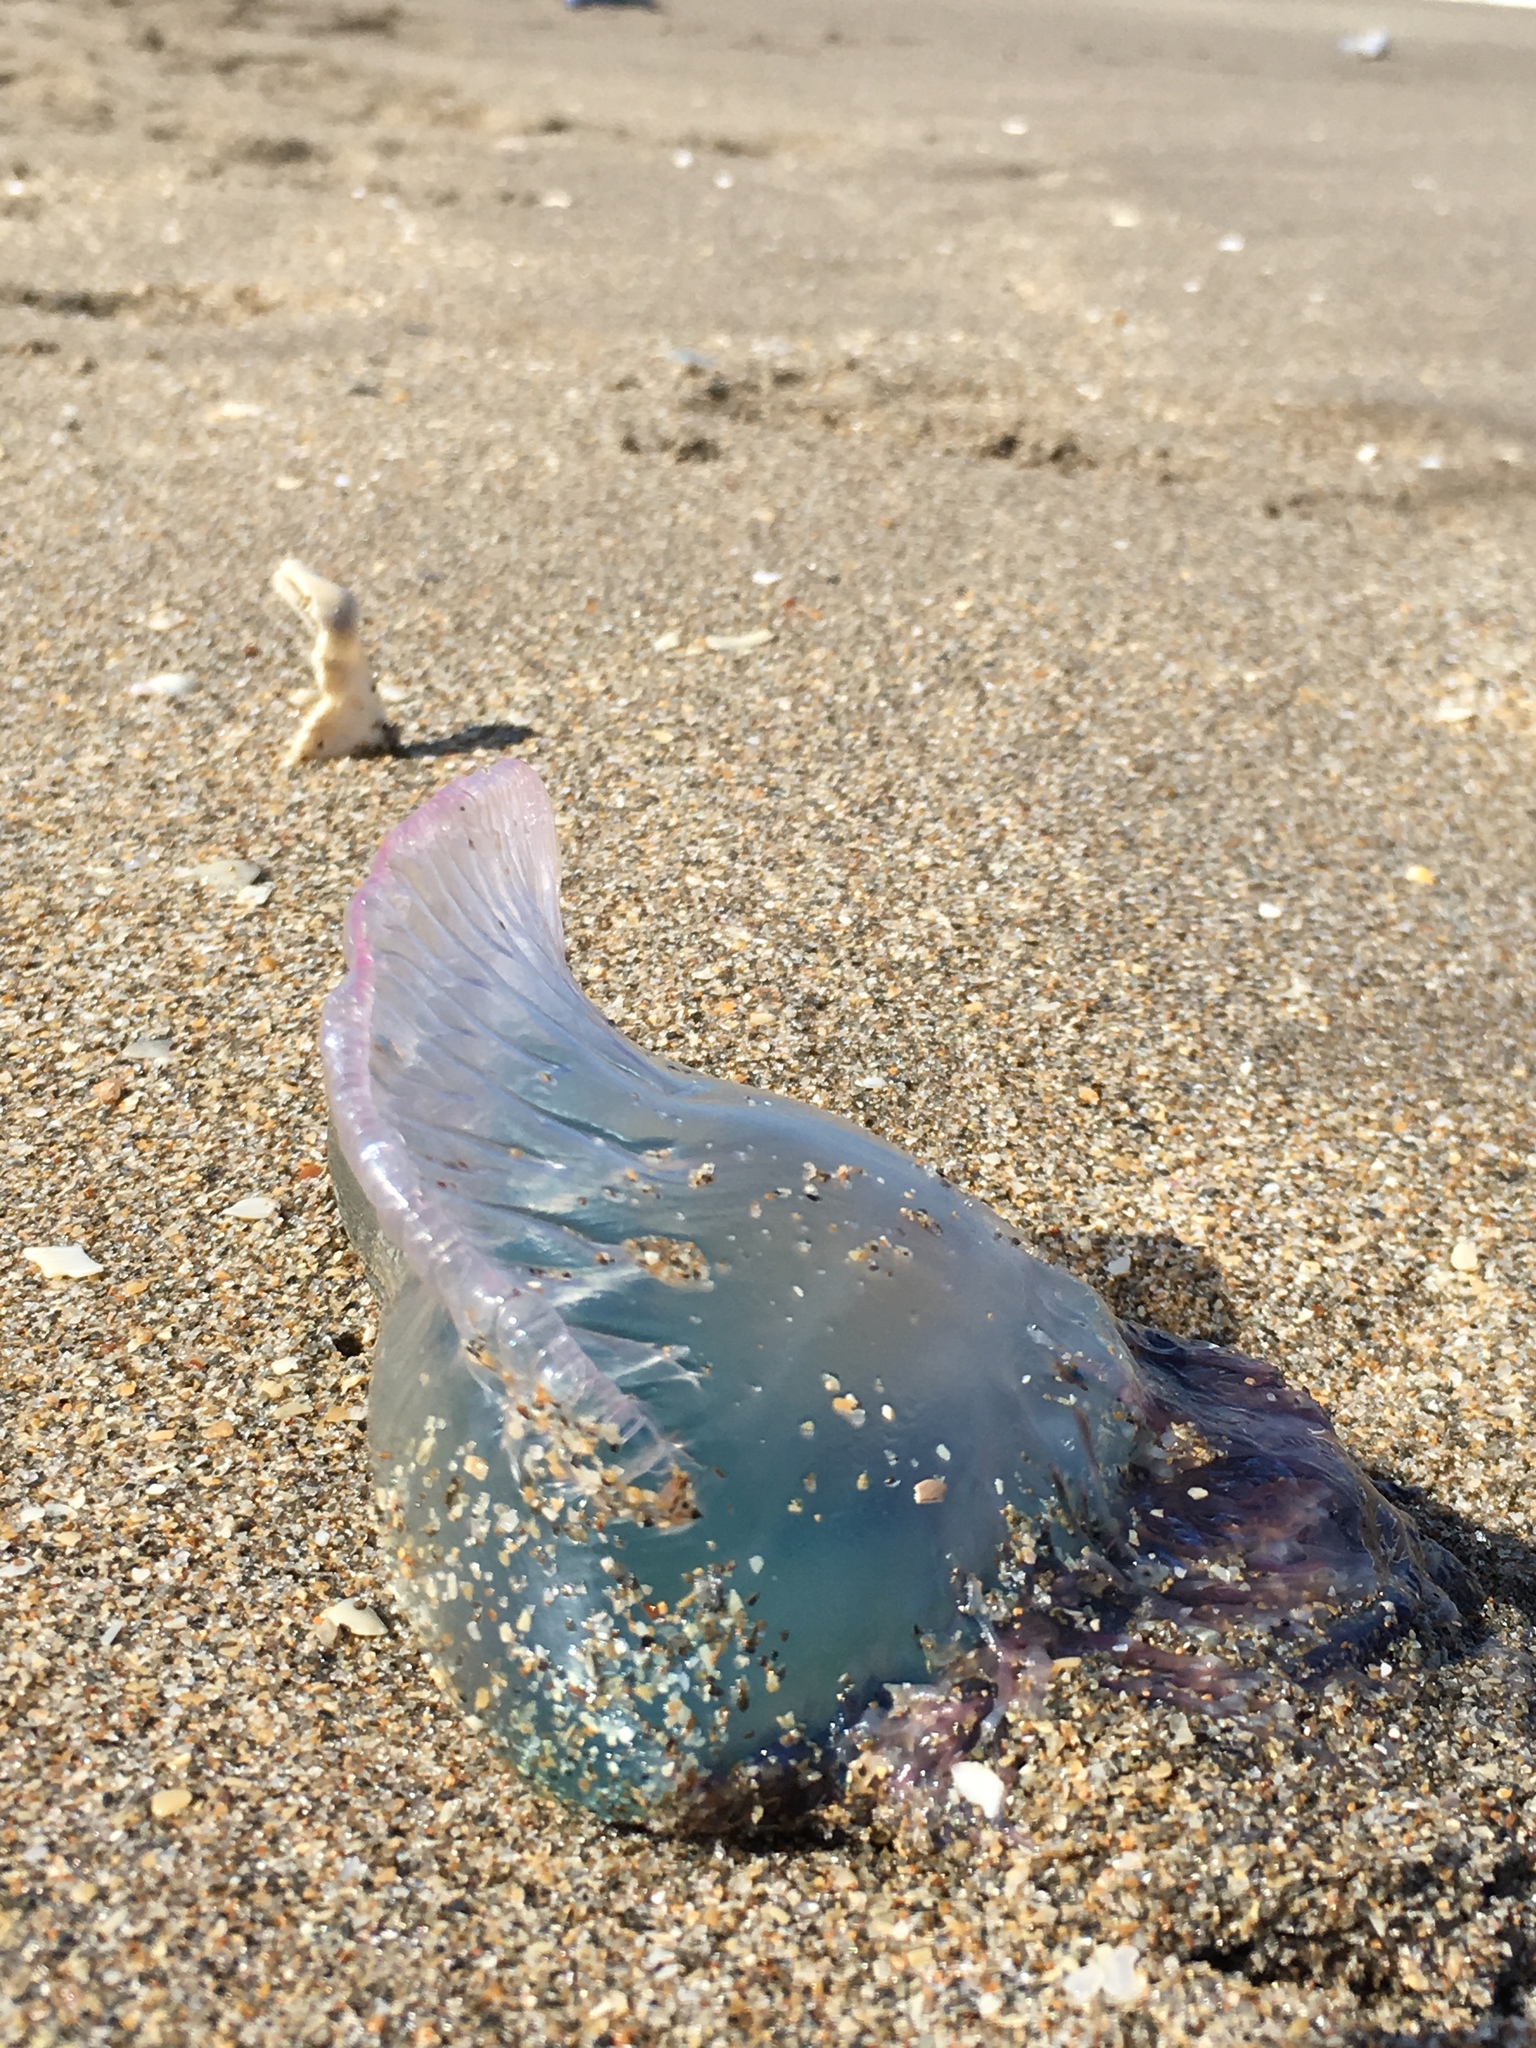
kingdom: Animalia
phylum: Cnidaria
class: Hydrozoa
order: Siphonophorae
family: Physaliidae
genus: Physalia
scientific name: Physalia physalis
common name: Portuguese man-of-war
